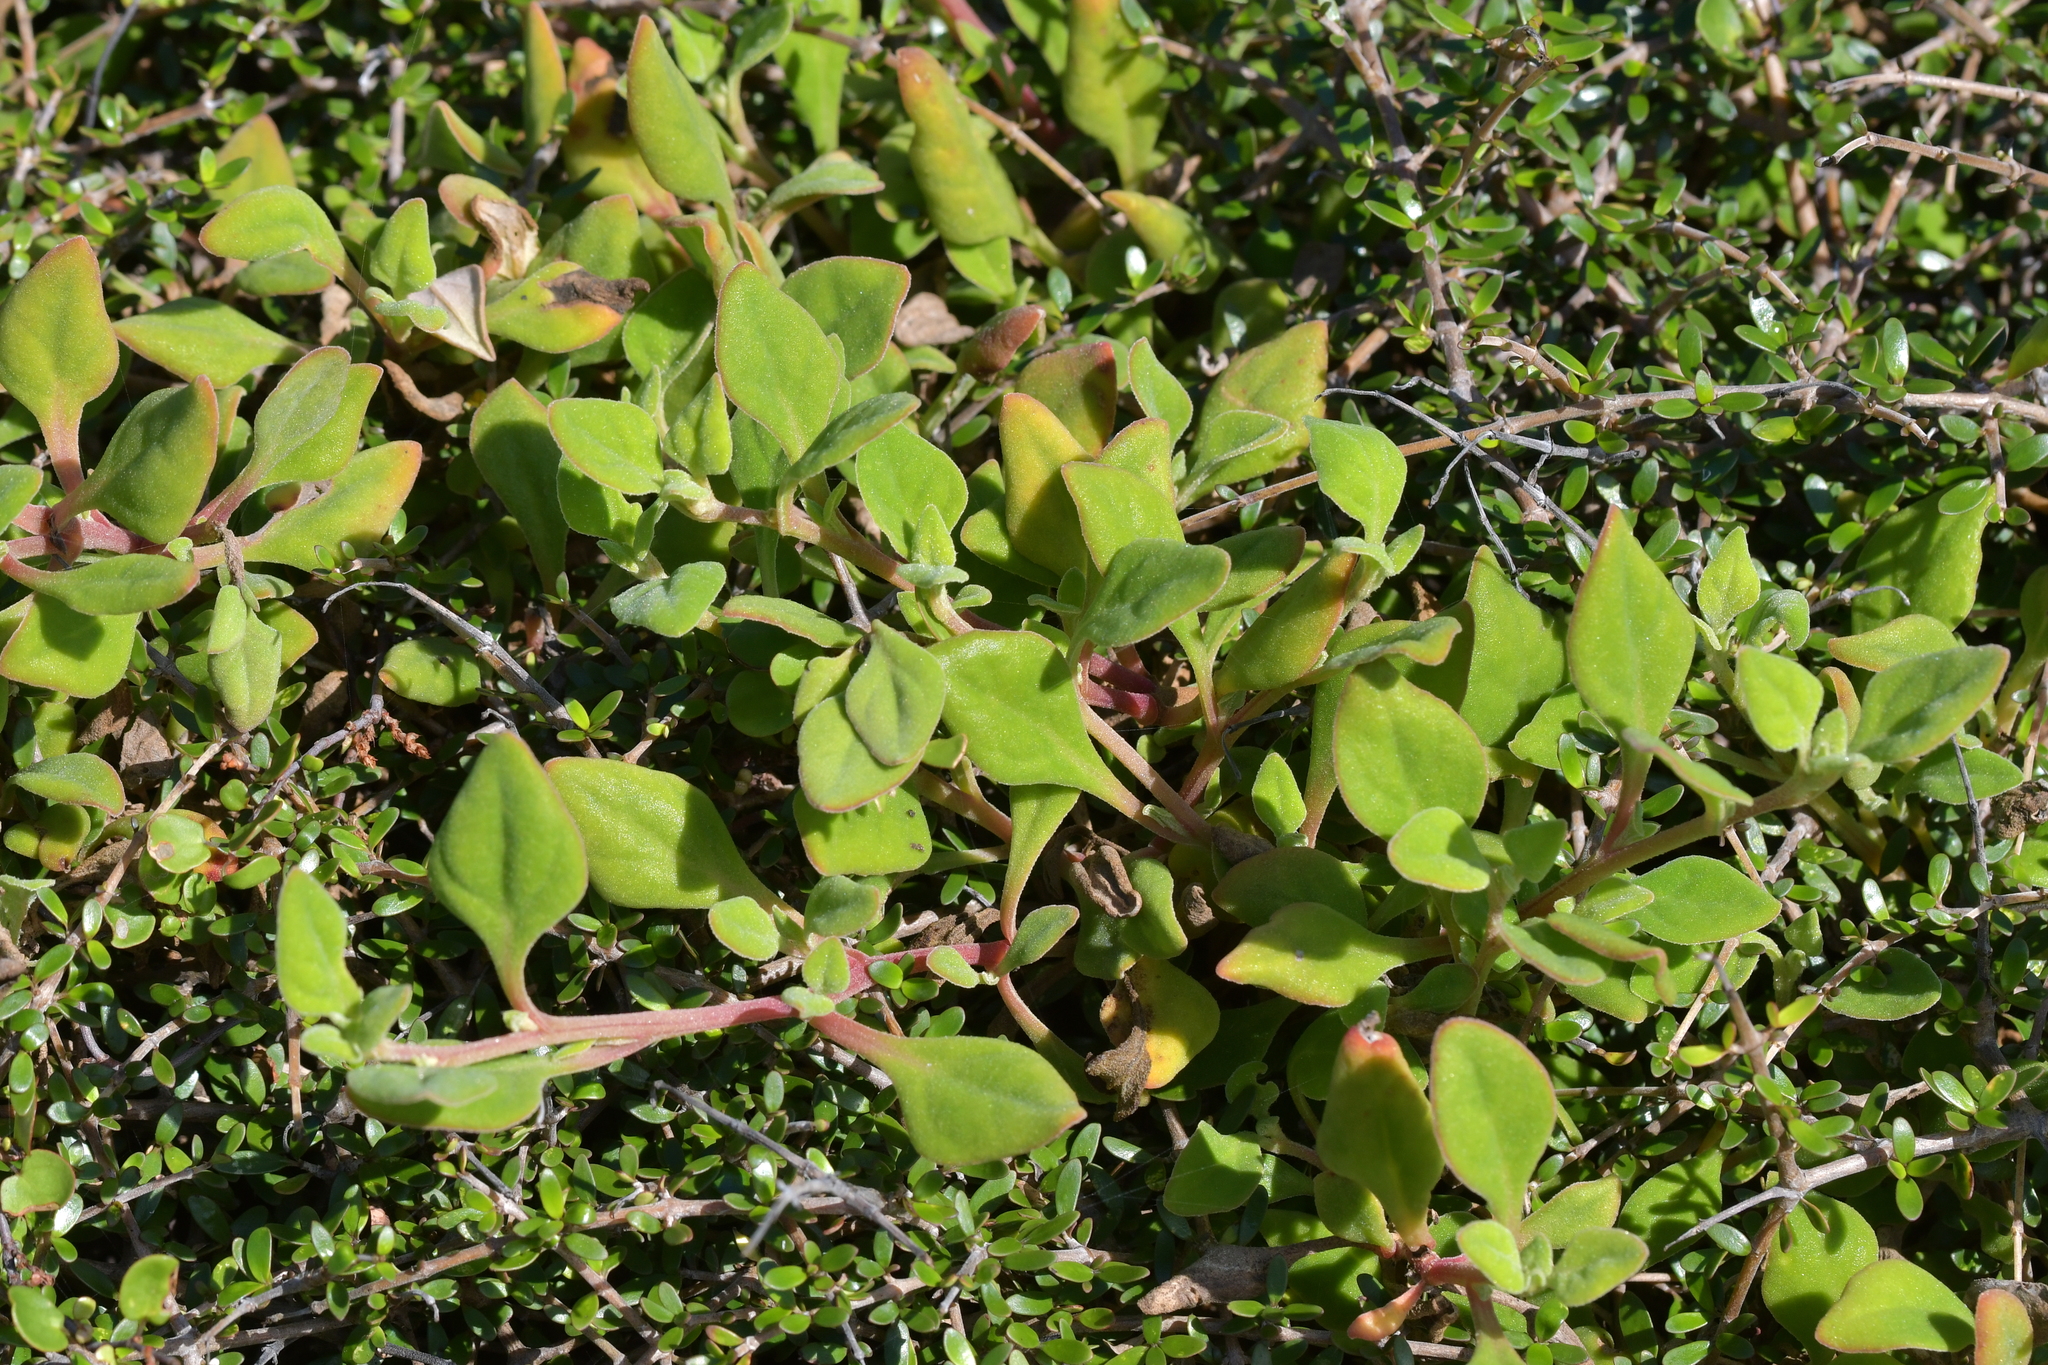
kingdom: Plantae
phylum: Tracheophyta
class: Magnoliopsida
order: Caryophyllales
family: Aizoaceae
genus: Tetragonia
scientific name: Tetragonia implexicoma
